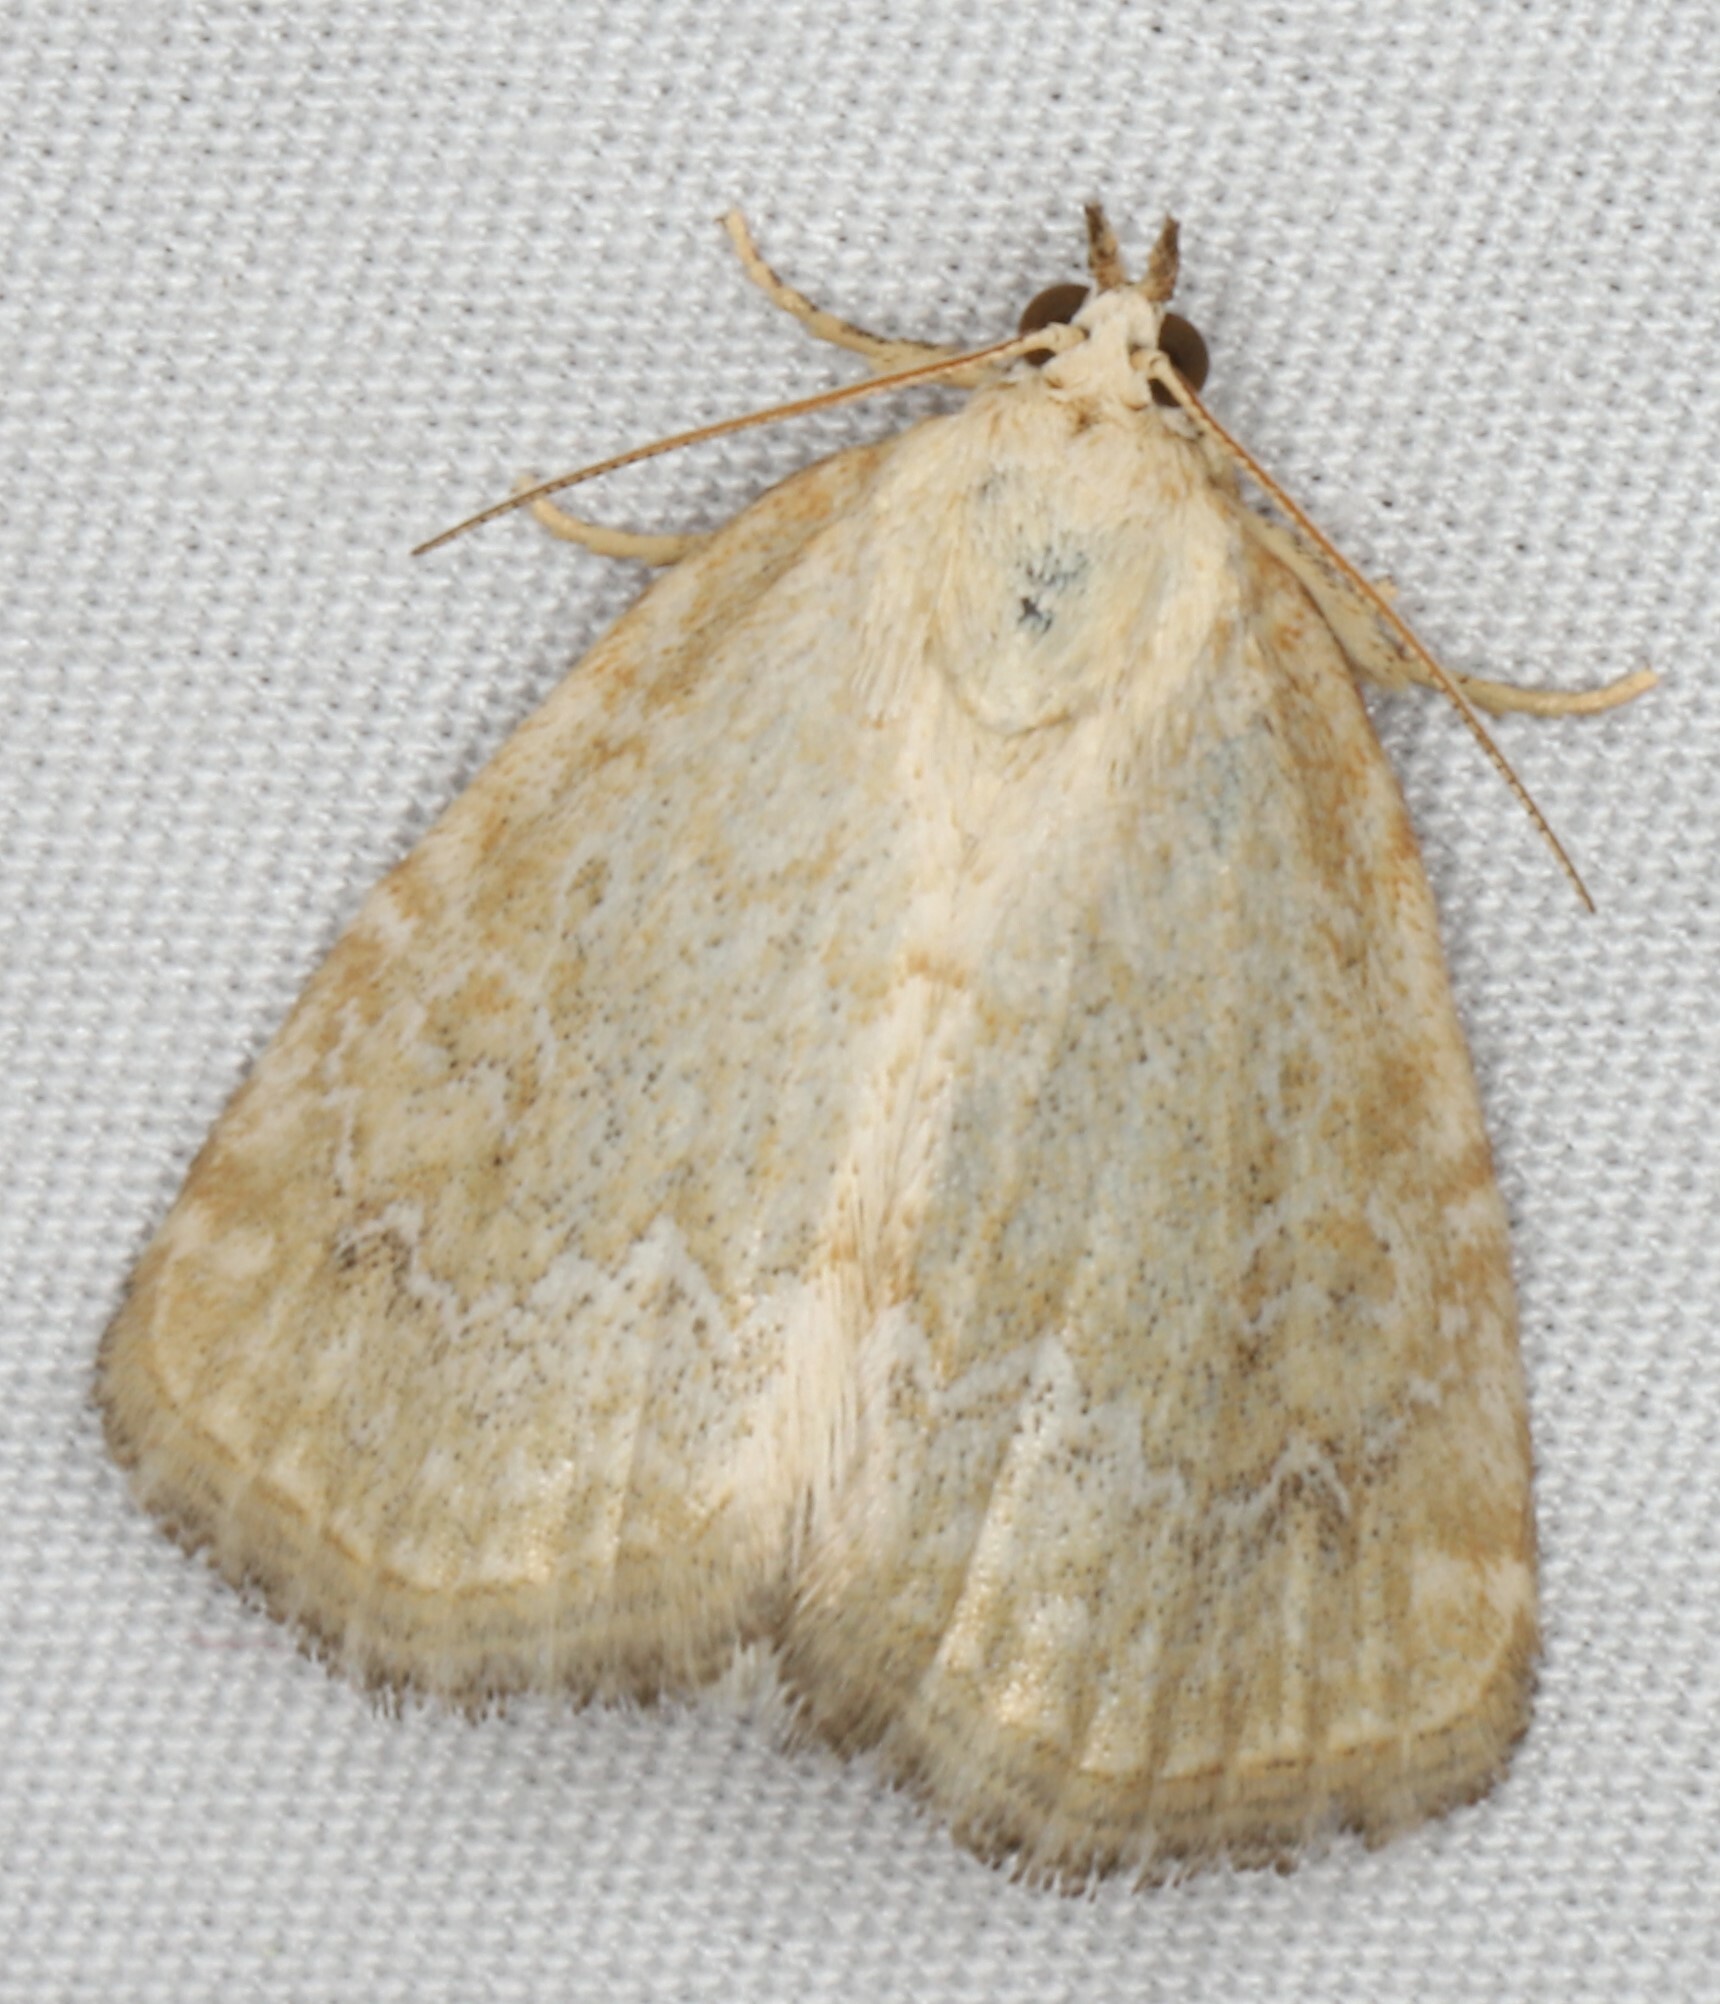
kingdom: Animalia
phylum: Arthropoda
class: Insecta
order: Lepidoptera
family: Noctuidae
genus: Protodeltote
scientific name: Protodeltote albidula
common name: Pale glyph
